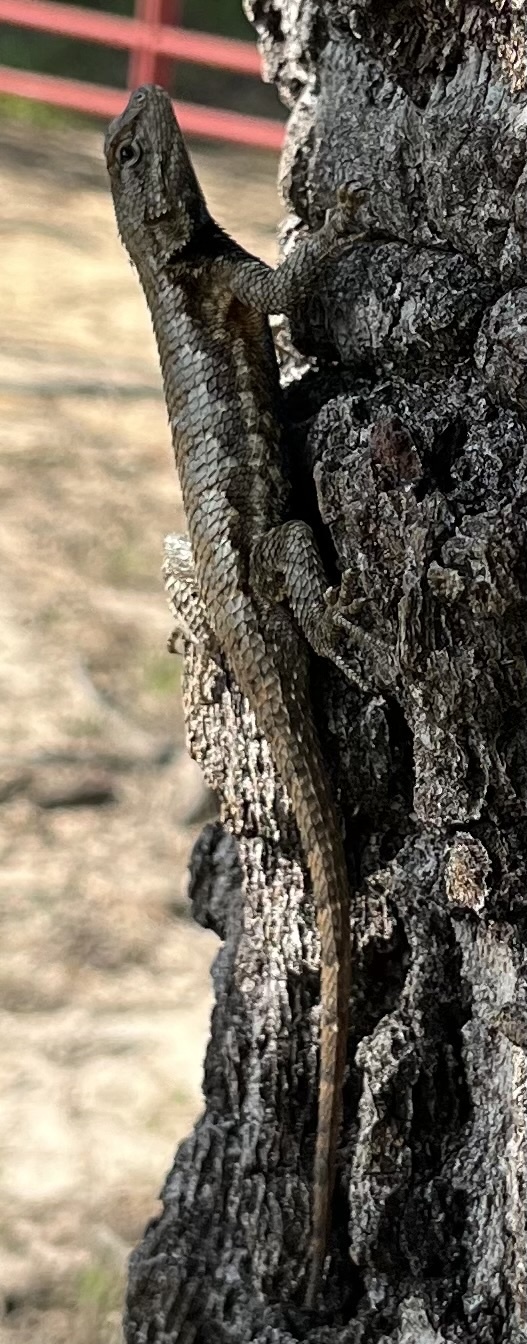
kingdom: Animalia
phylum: Chordata
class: Squamata
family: Phrynosomatidae
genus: Sceloporus
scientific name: Sceloporus undulatus
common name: Eastern fence lizard
